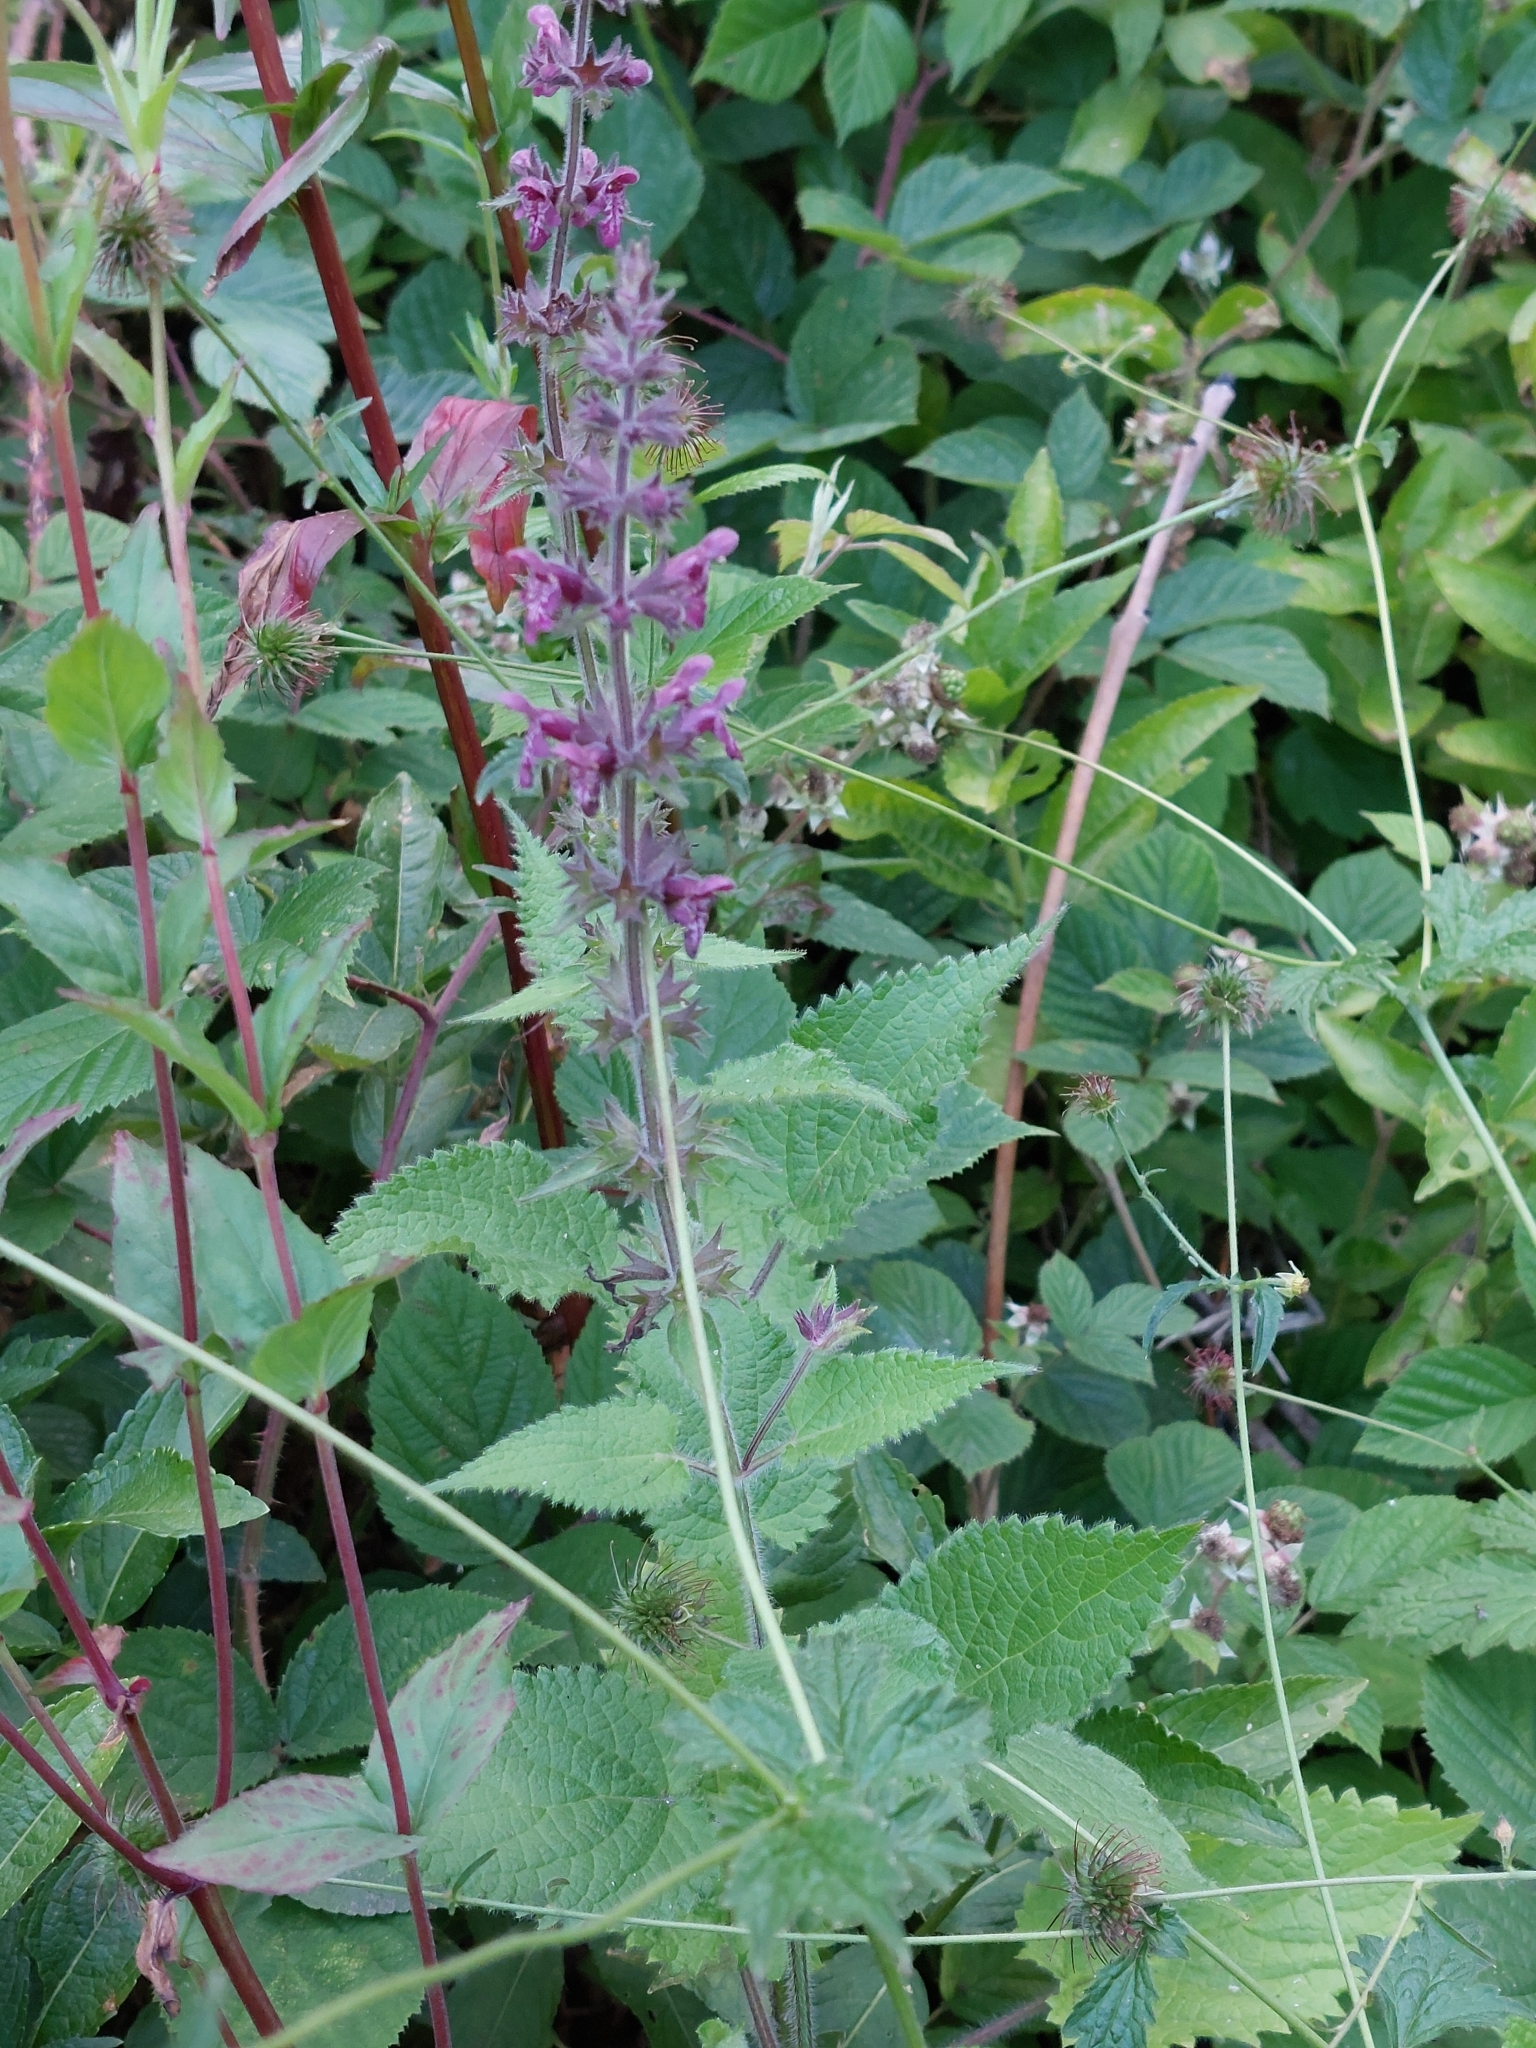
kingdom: Plantae
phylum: Tracheophyta
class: Magnoliopsida
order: Lamiales
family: Lamiaceae
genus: Stachys
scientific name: Stachys sylvatica
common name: Hedge woundwort
